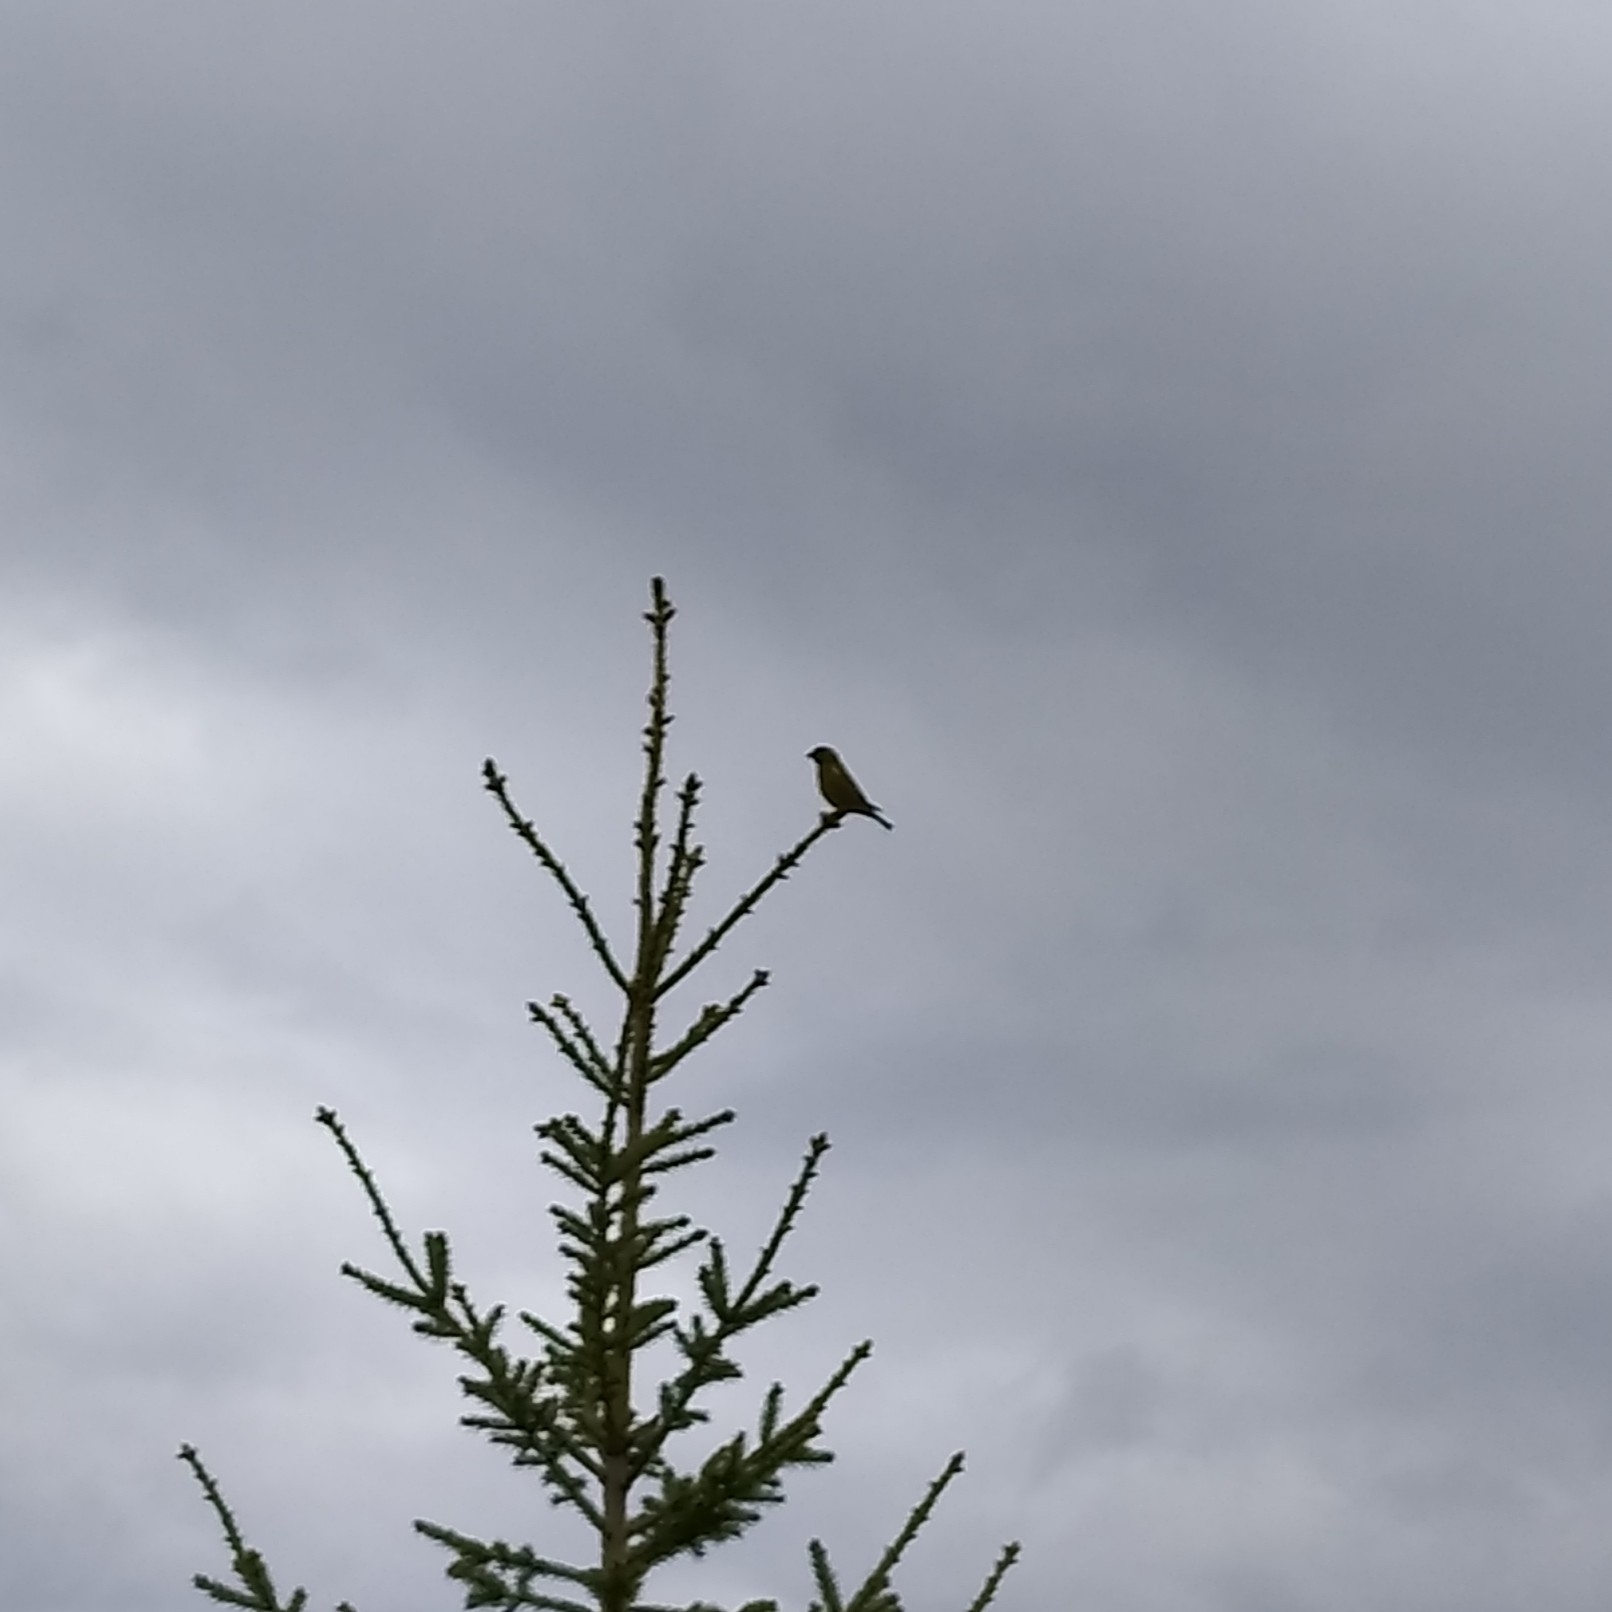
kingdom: Plantae
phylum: Tracheophyta
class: Liliopsida
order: Poales
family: Poaceae
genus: Chloris
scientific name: Chloris chloris
